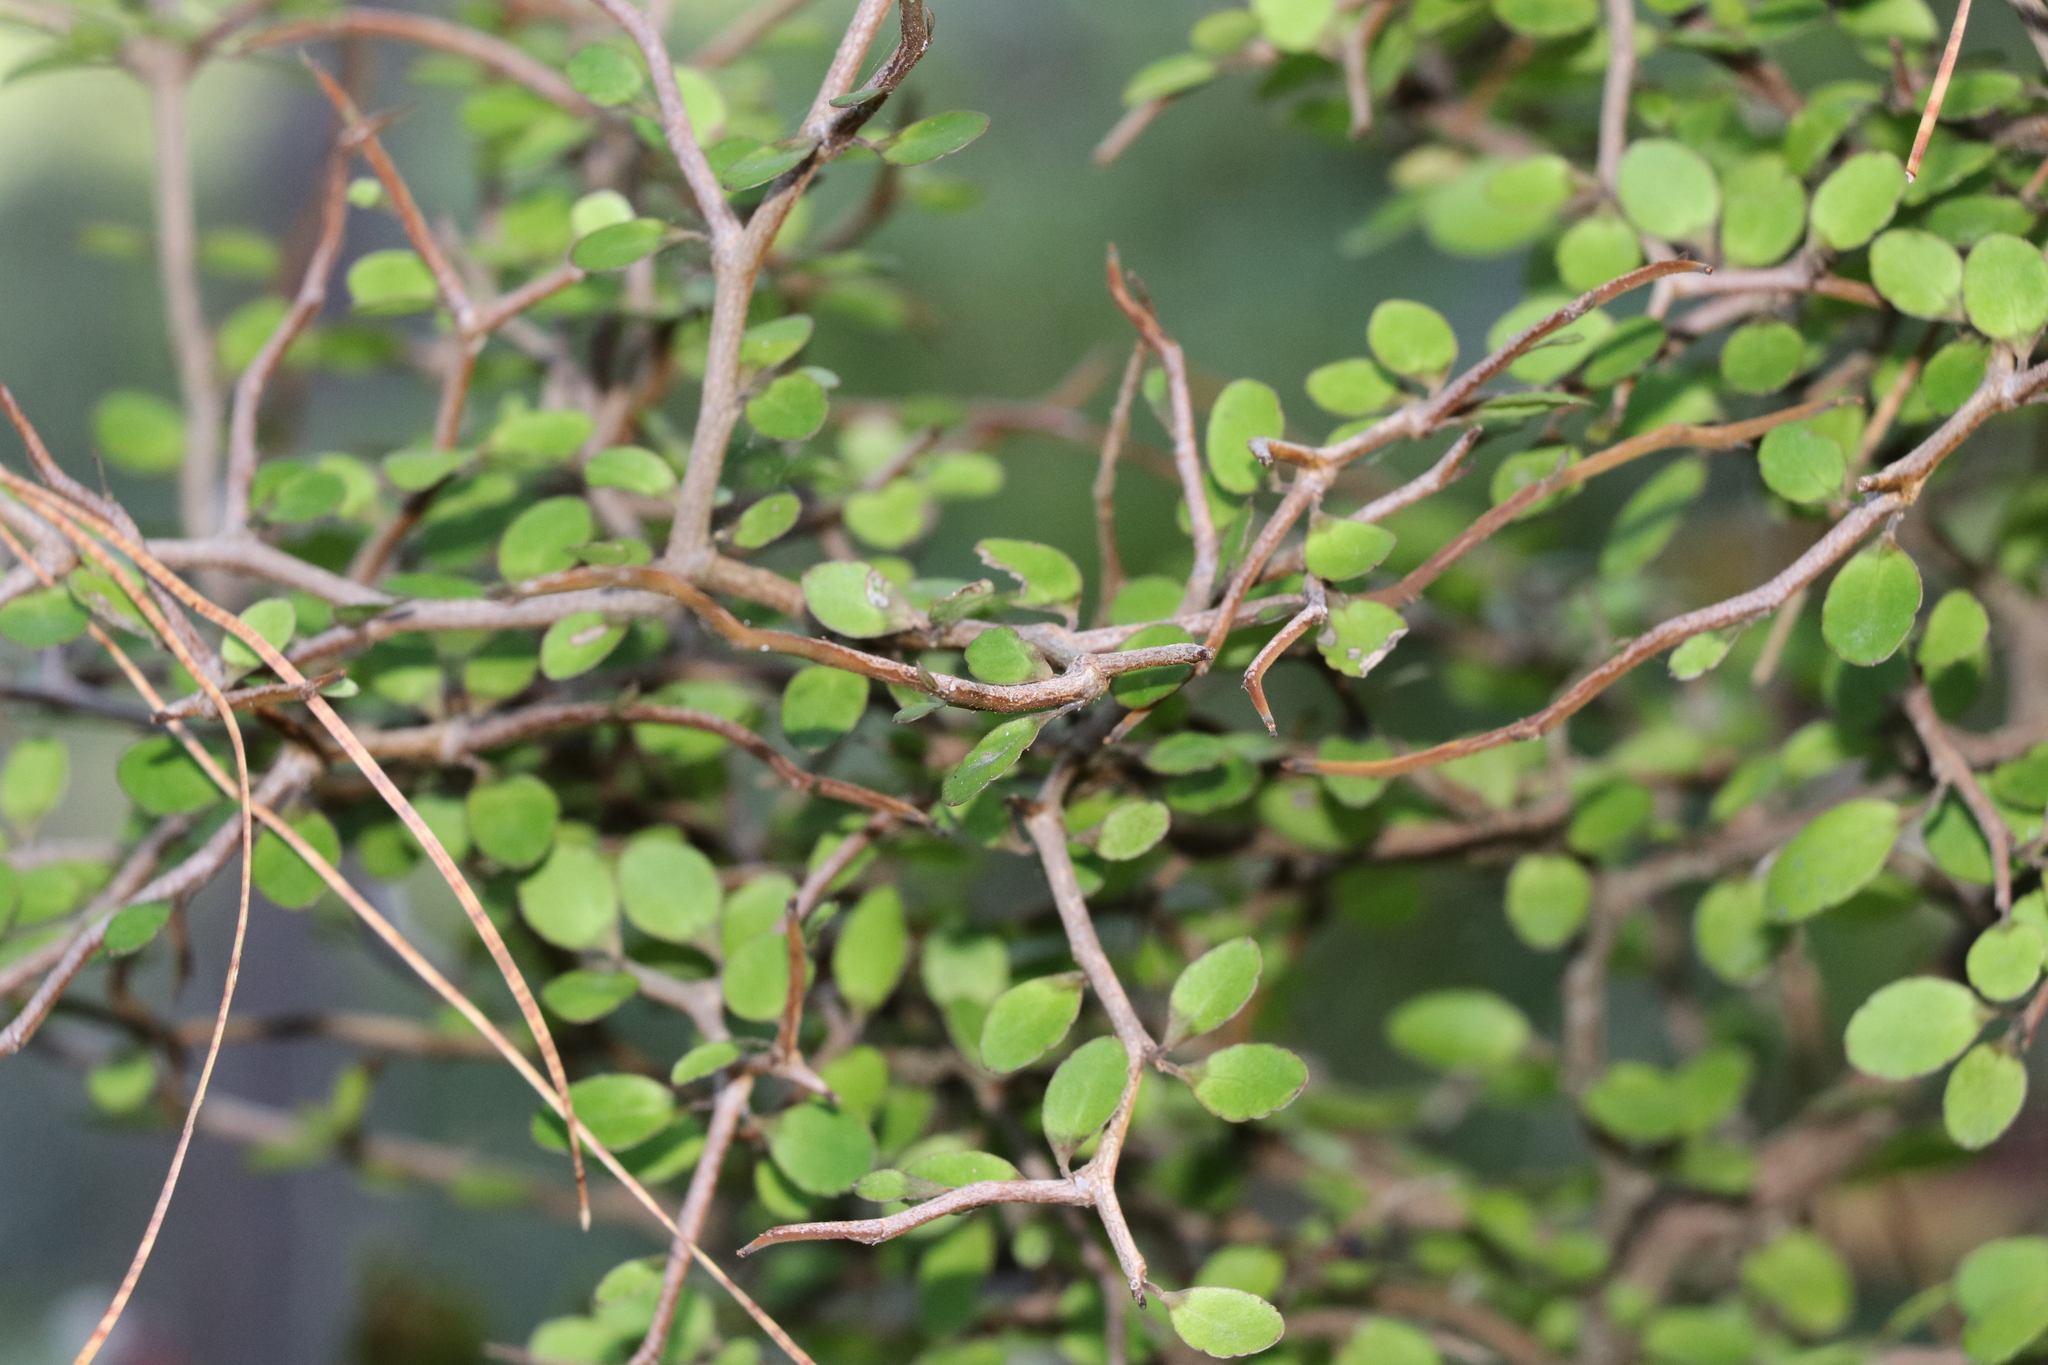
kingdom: Plantae
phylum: Tracheophyta
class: Magnoliopsida
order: Apiales
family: Araliaceae
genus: Raukaua
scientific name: Raukaua anomalus
